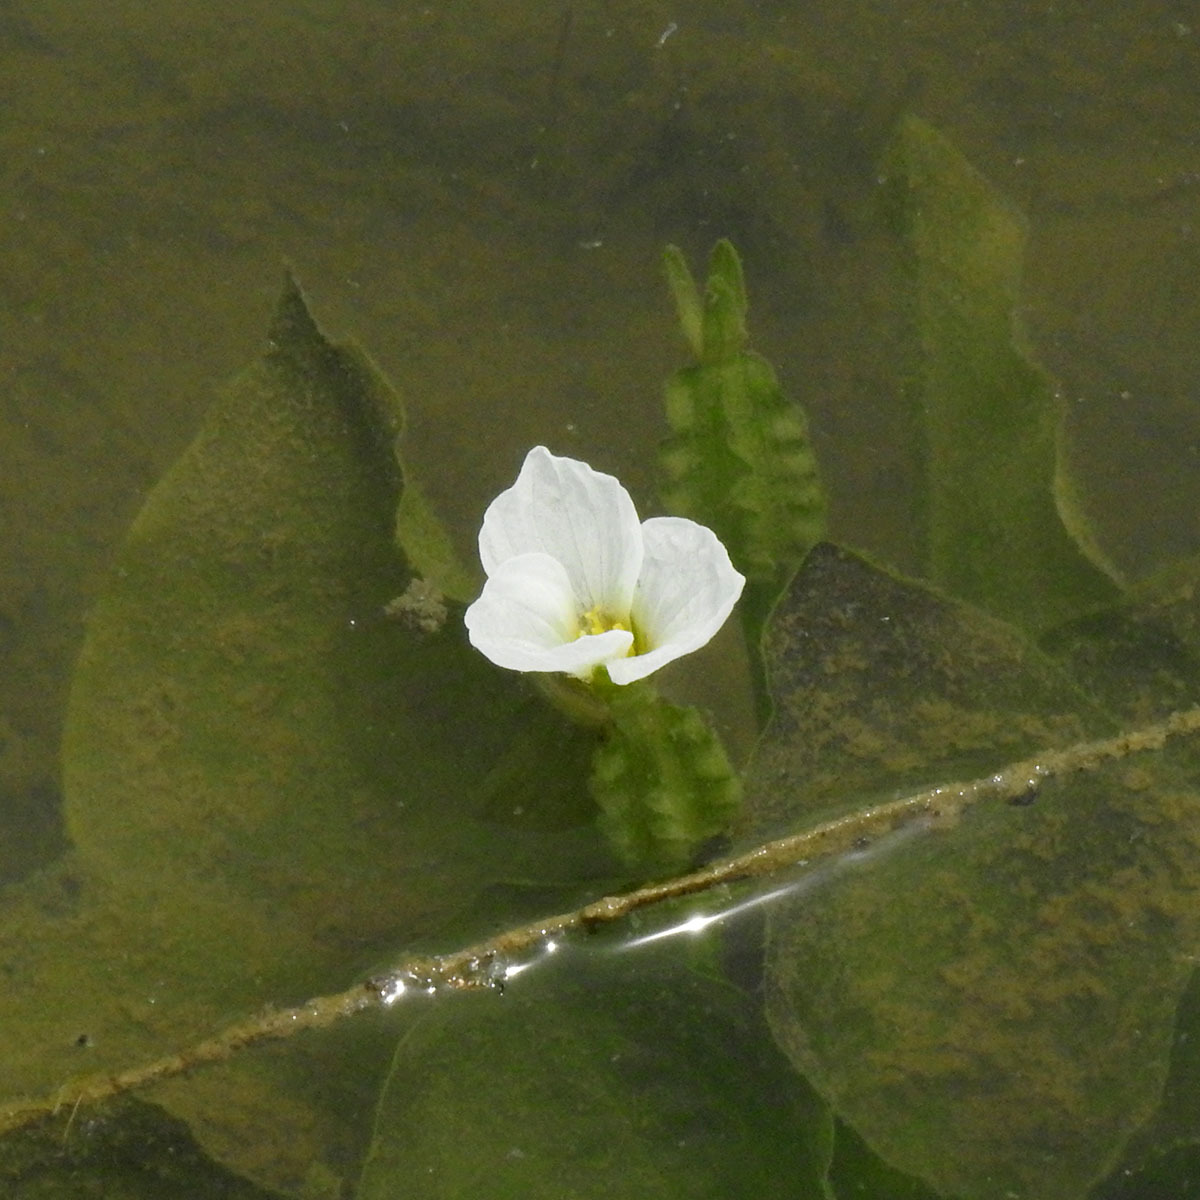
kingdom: Plantae
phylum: Tracheophyta
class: Liliopsida
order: Alismatales
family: Hydrocharitaceae
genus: Ottelia
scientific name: Ottelia alismoides
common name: Duck-lettuce
